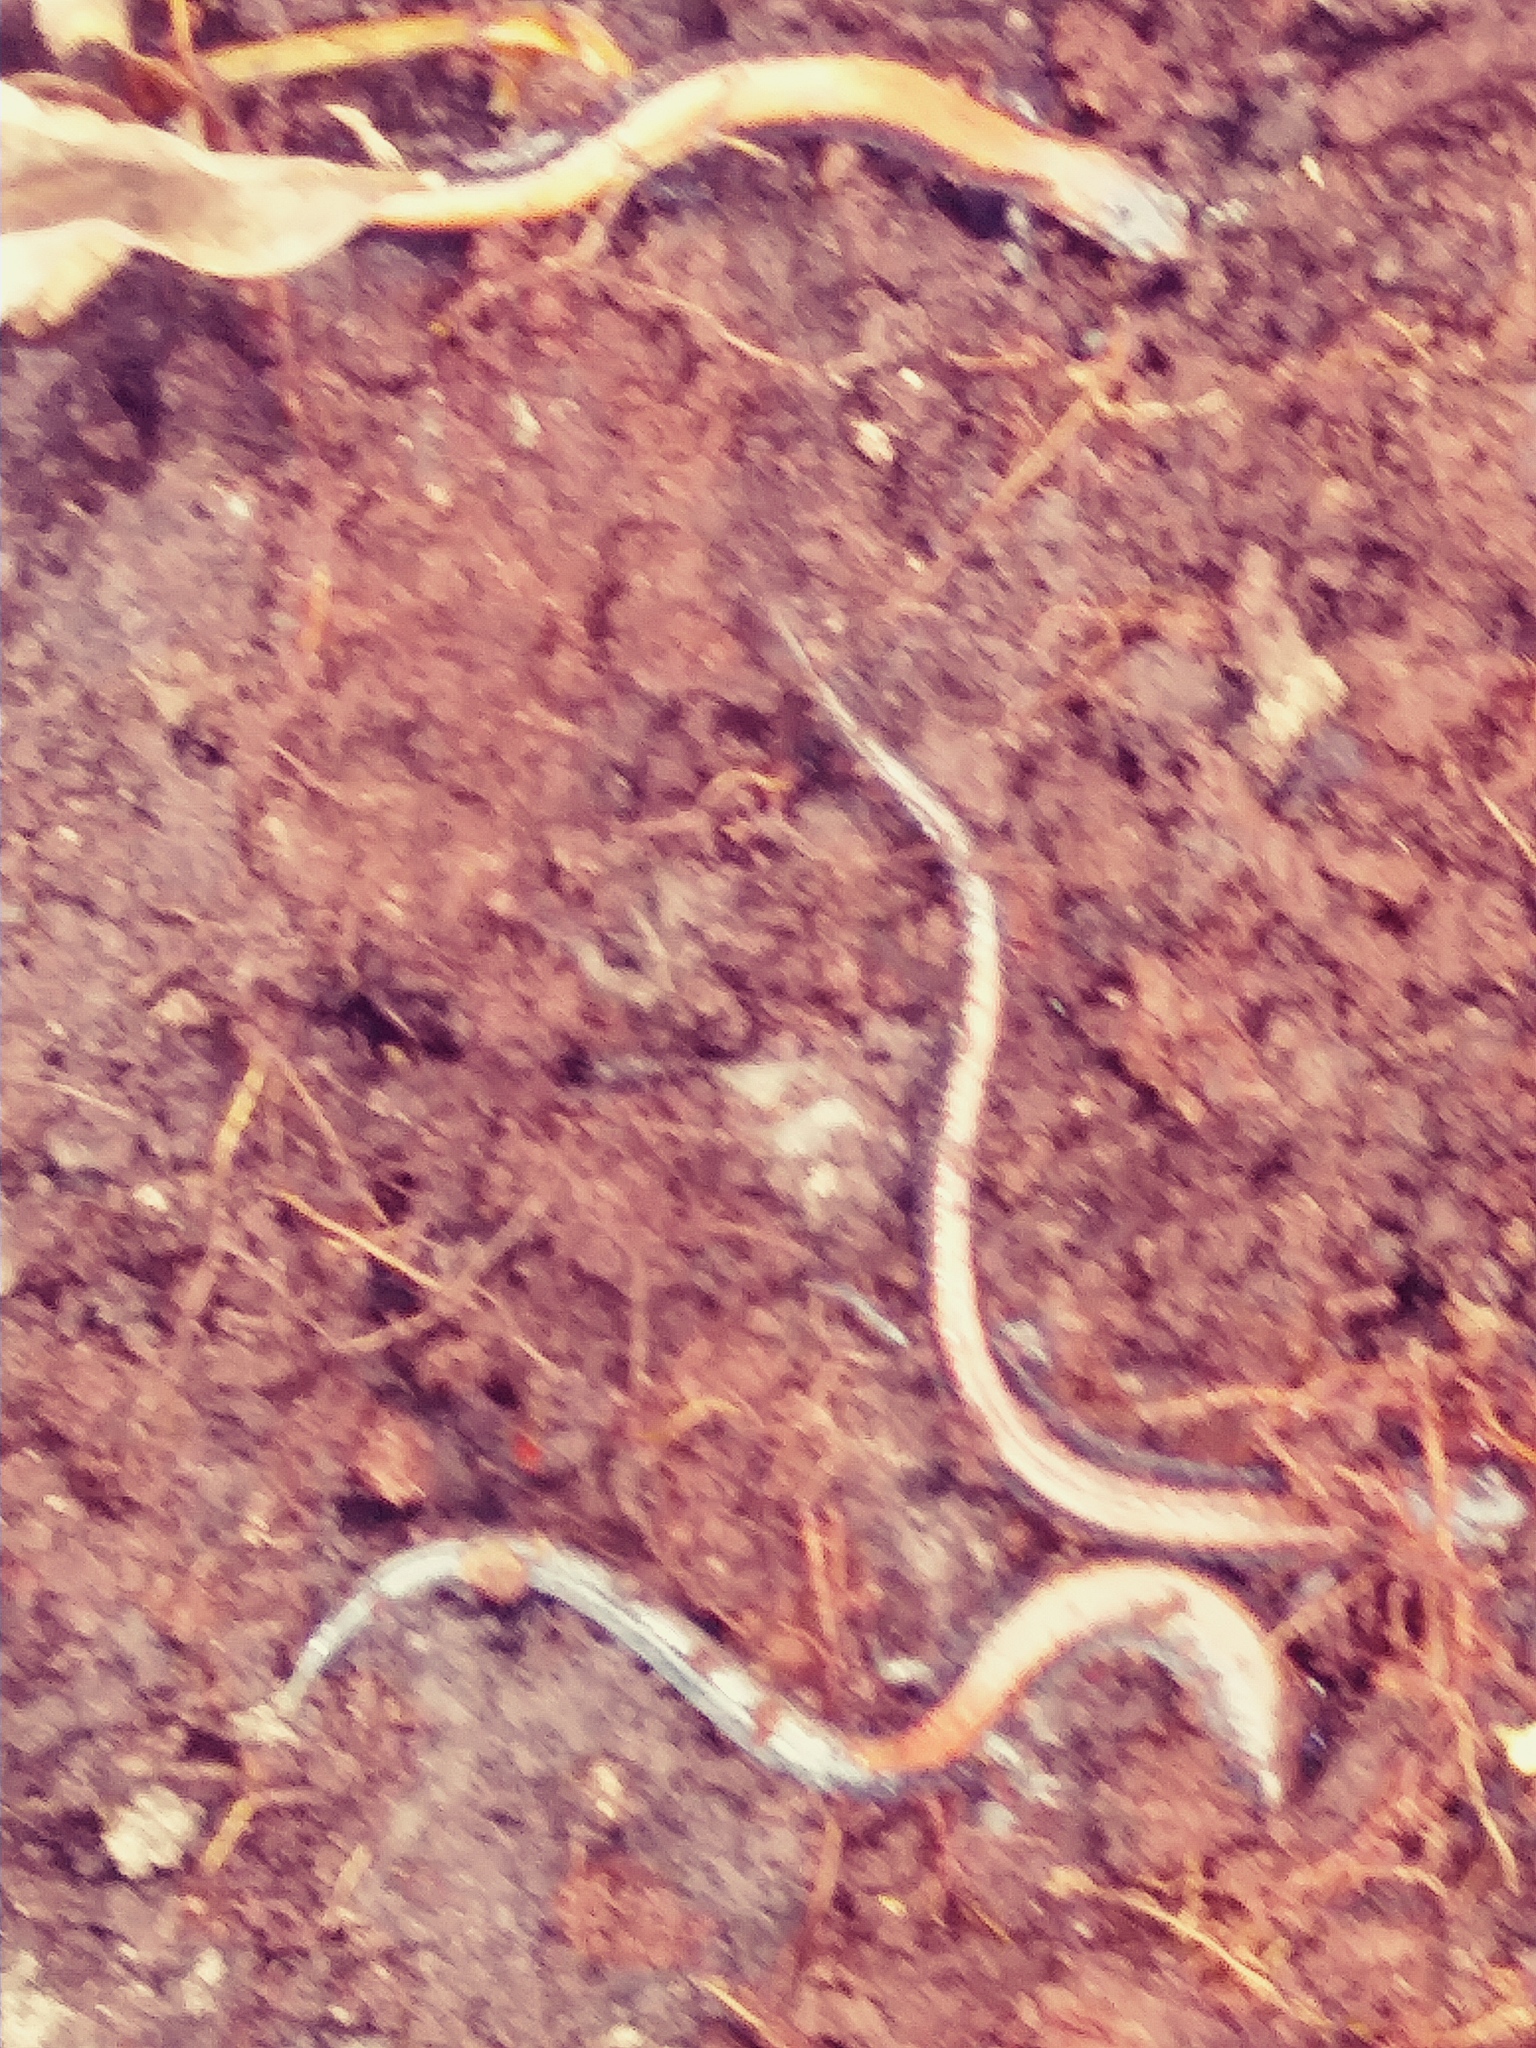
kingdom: Animalia
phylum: Chordata
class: Amphibia
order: Caudata
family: Plethodontidae
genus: Plethodon
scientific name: Plethodon cinereus
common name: Redback salamander
